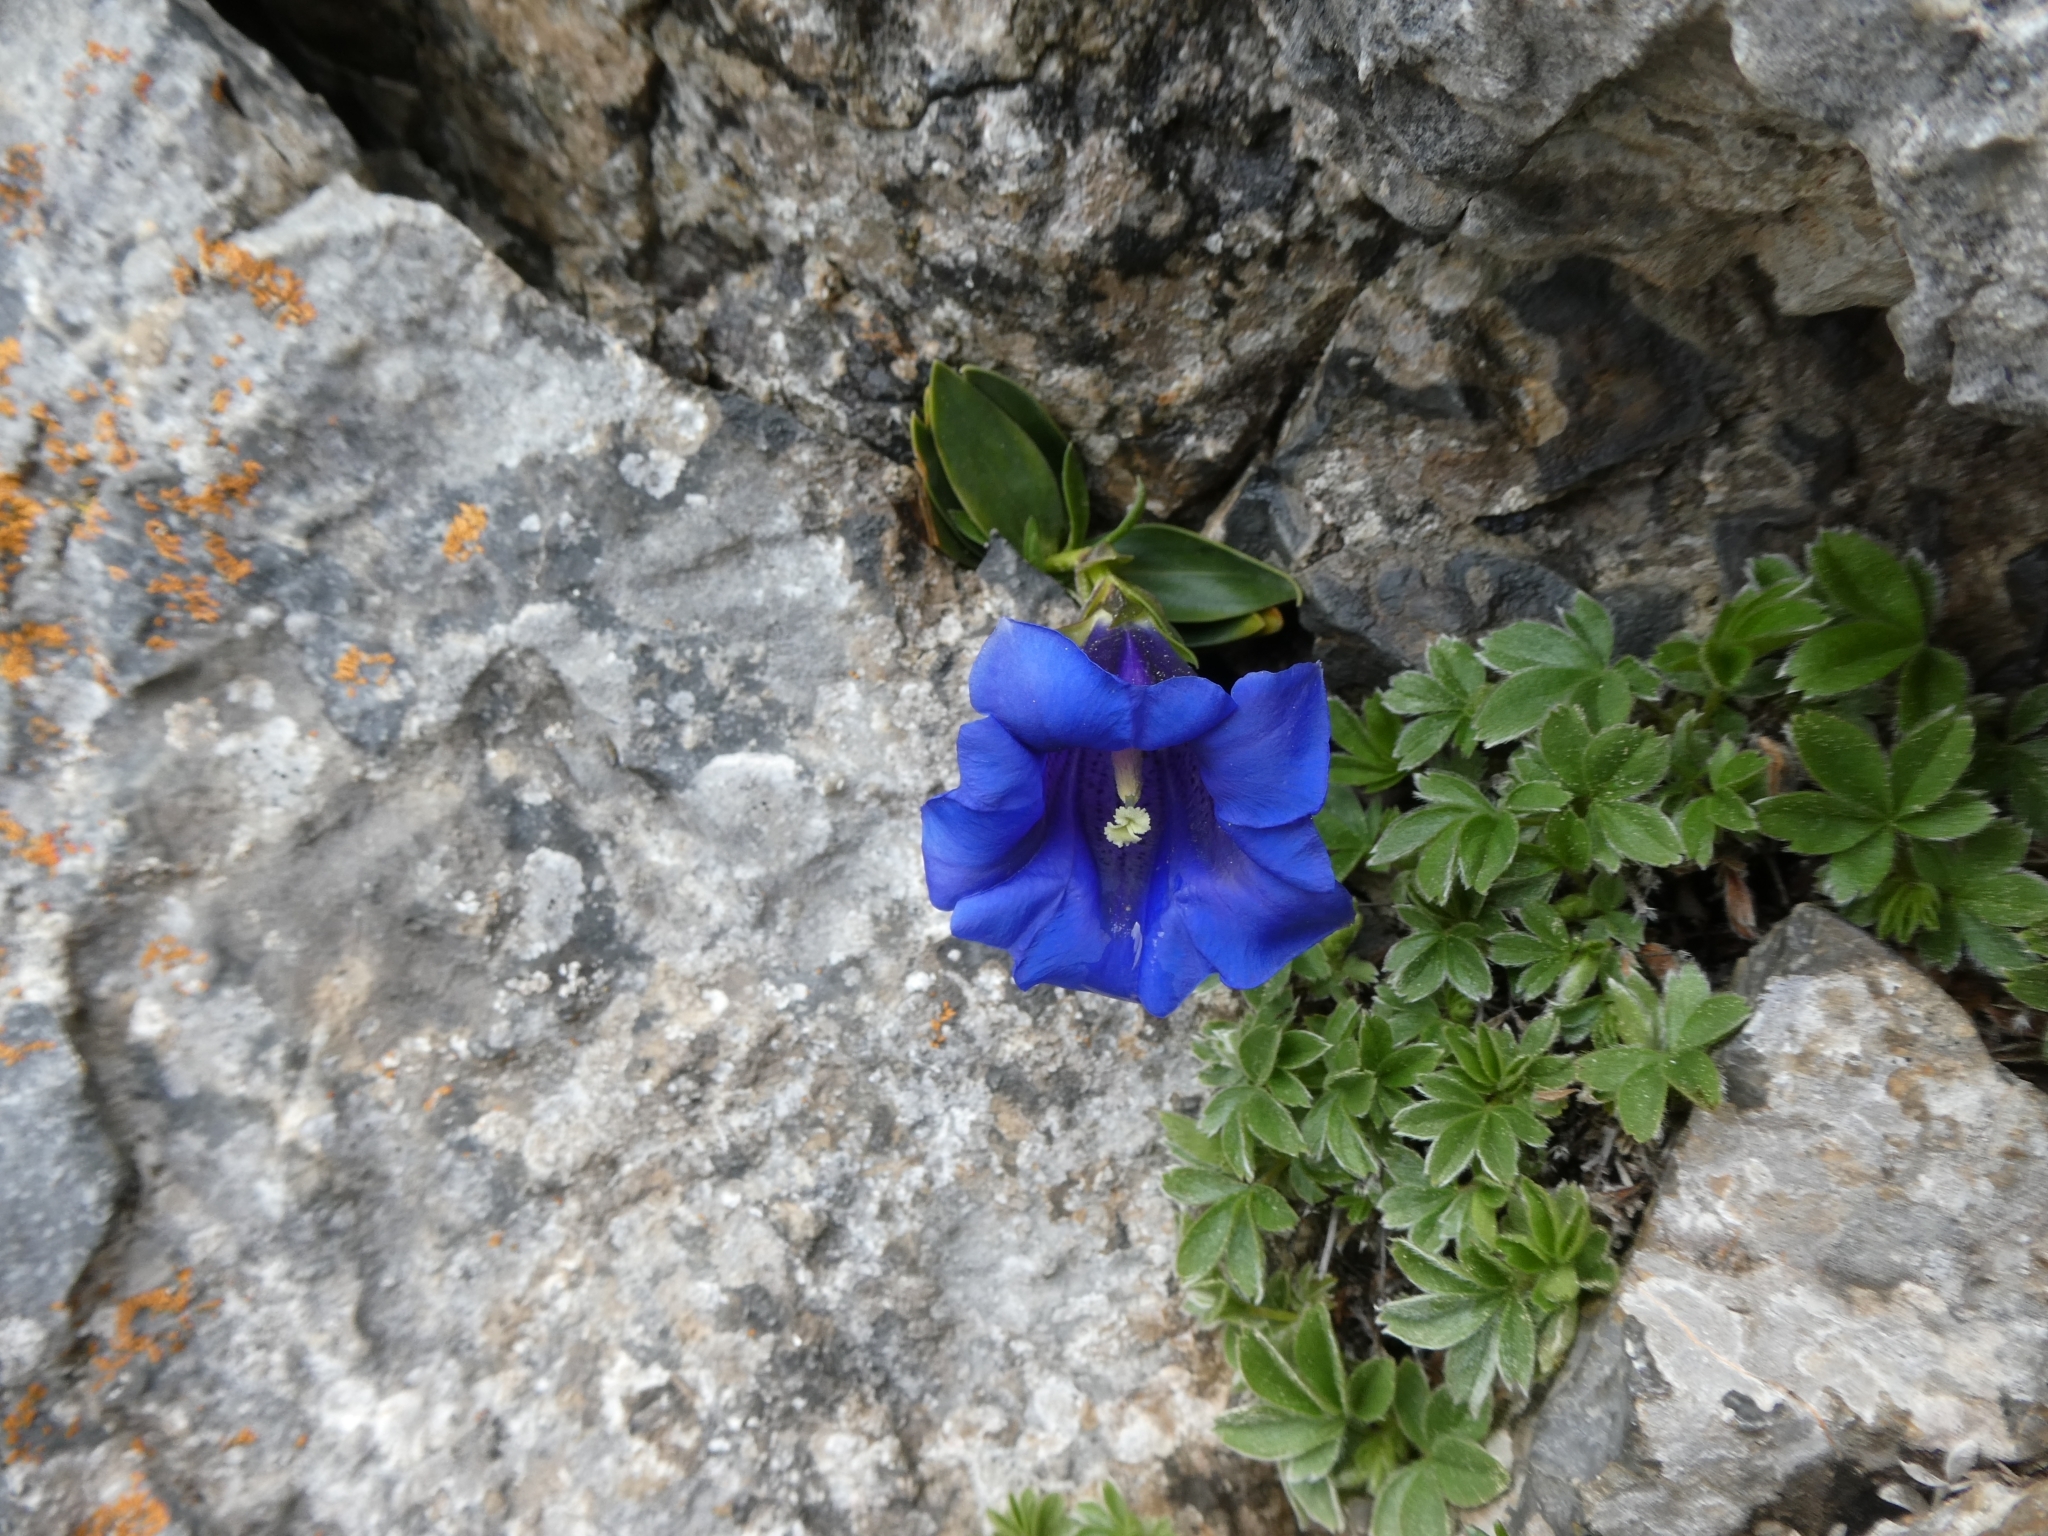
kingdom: Plantae
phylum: Tracheophyta
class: Magnoliopsida
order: Gentianales
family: Gentianaceae
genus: Gentiana
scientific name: Gentiana clusii
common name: Trumpet gentian
